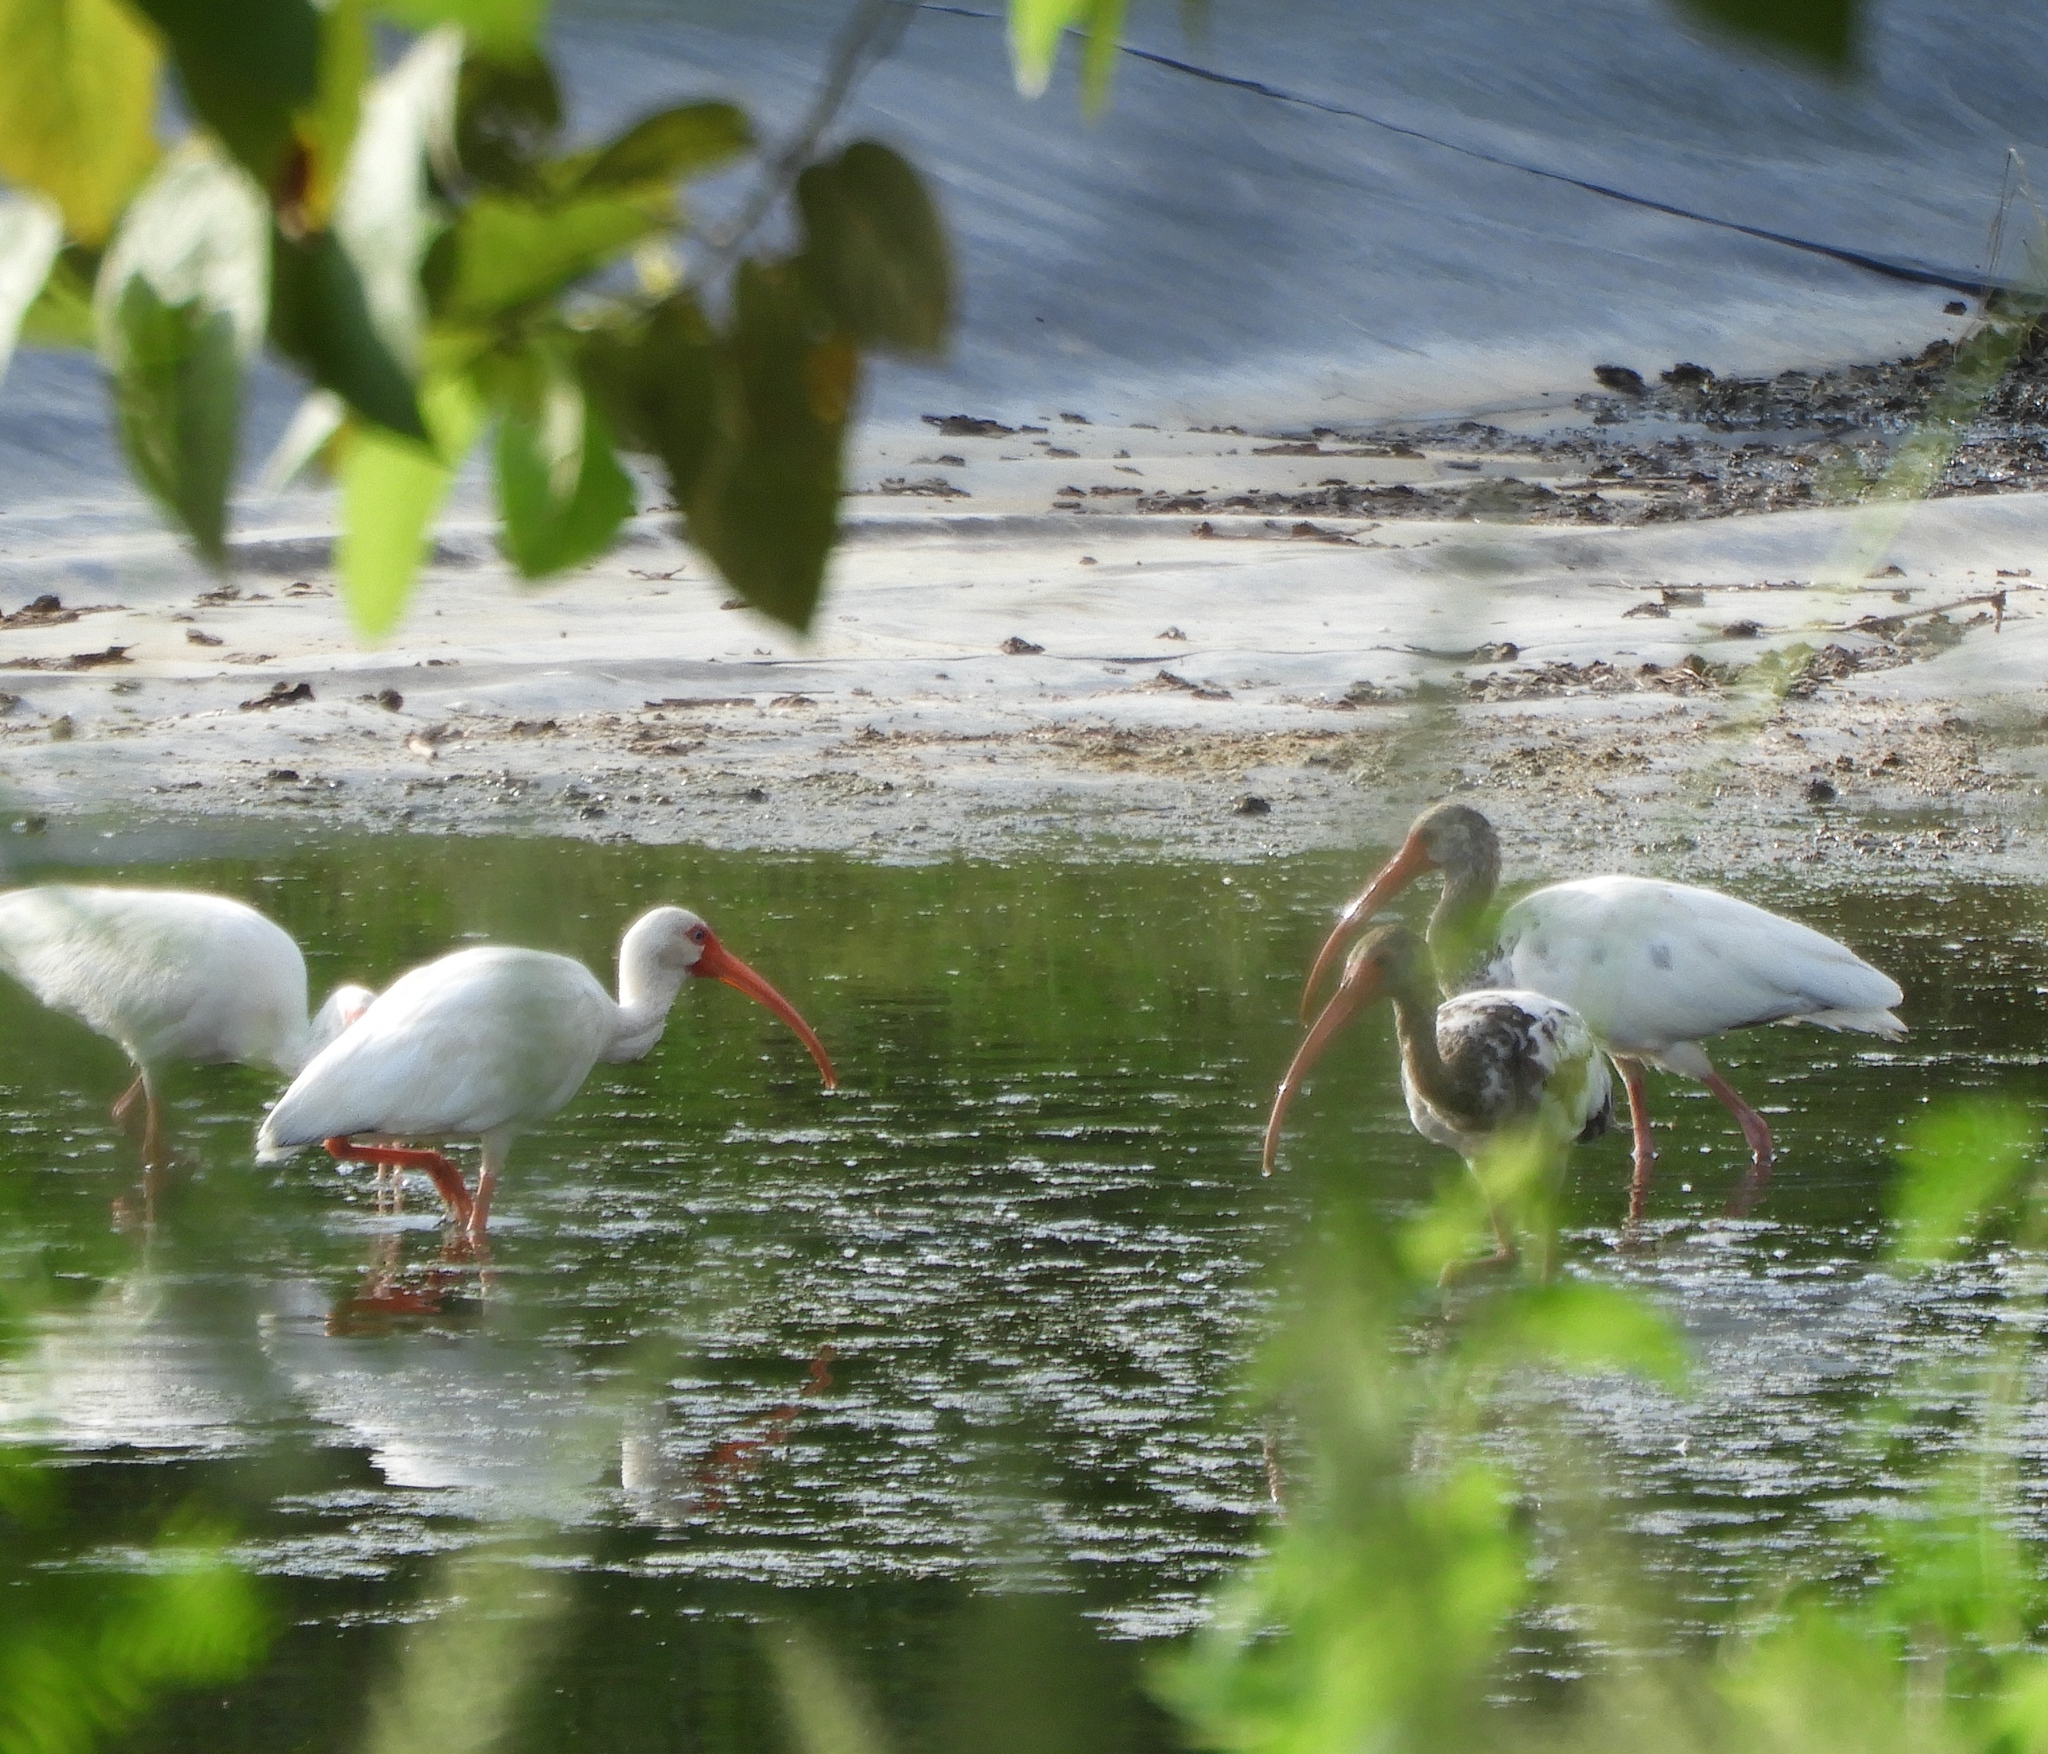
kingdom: Animalia
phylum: Chordata
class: Aves
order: Pelecaniformes
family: Threskiornithidae
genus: Eudocimus
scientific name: Eudocimus albus
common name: White ibis
